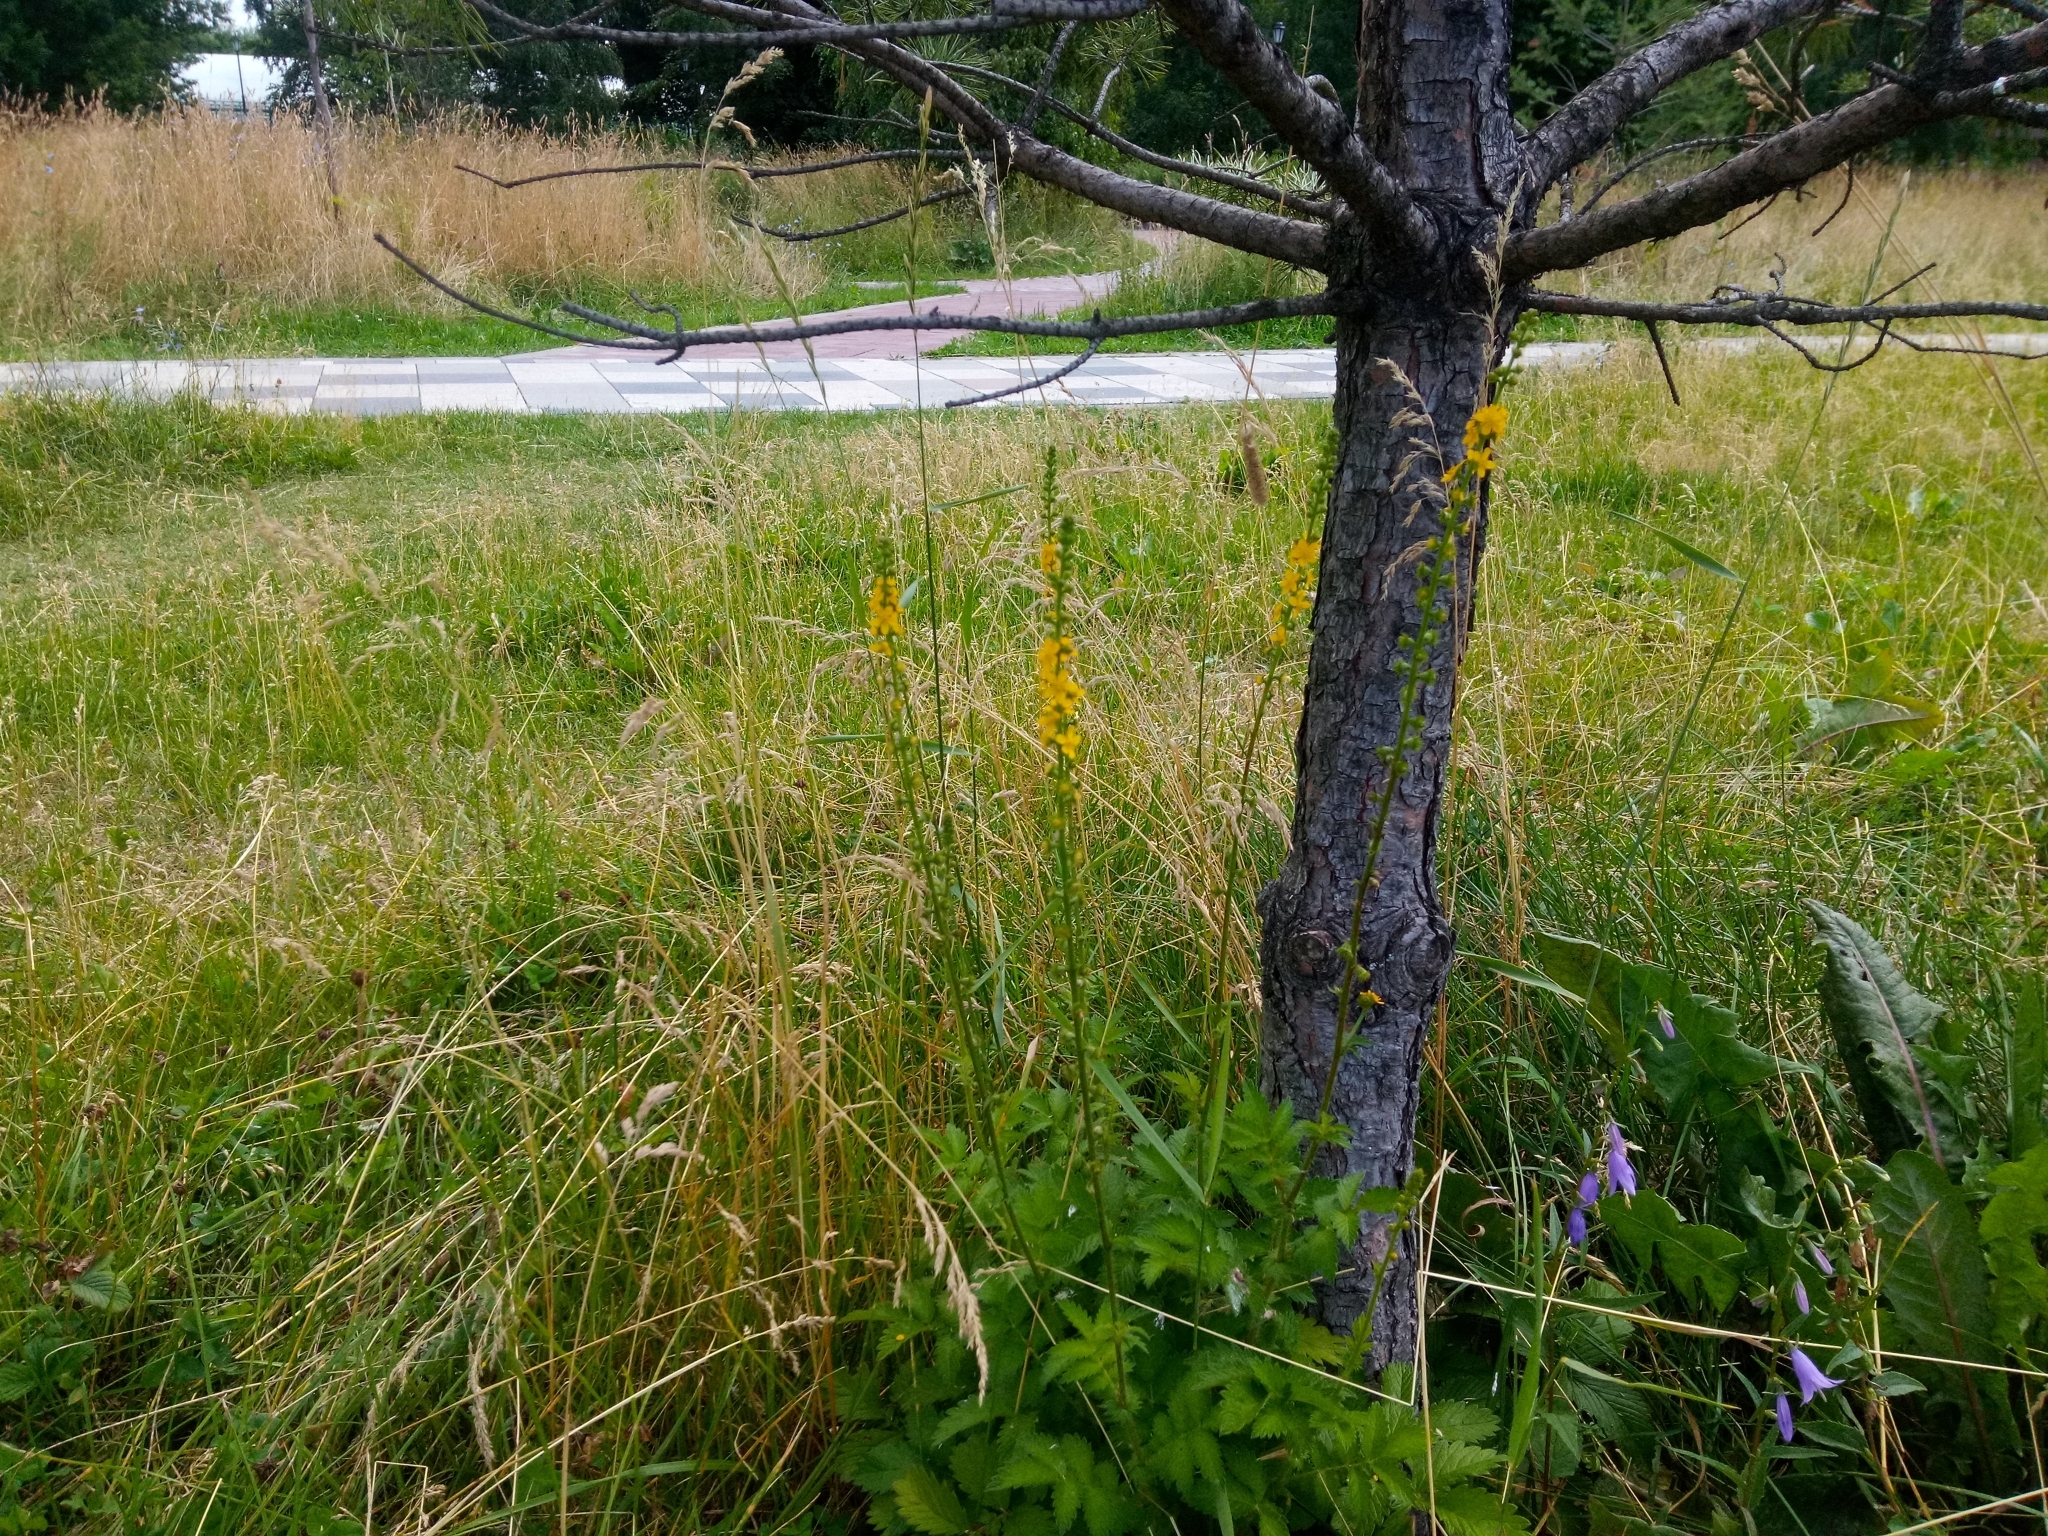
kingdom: Plantae
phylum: Tracheophyta
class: Magnoliopsida
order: Rosales
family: Rosaceae
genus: Agrimonia
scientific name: Agrimonia eupatoria
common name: Agrimony
